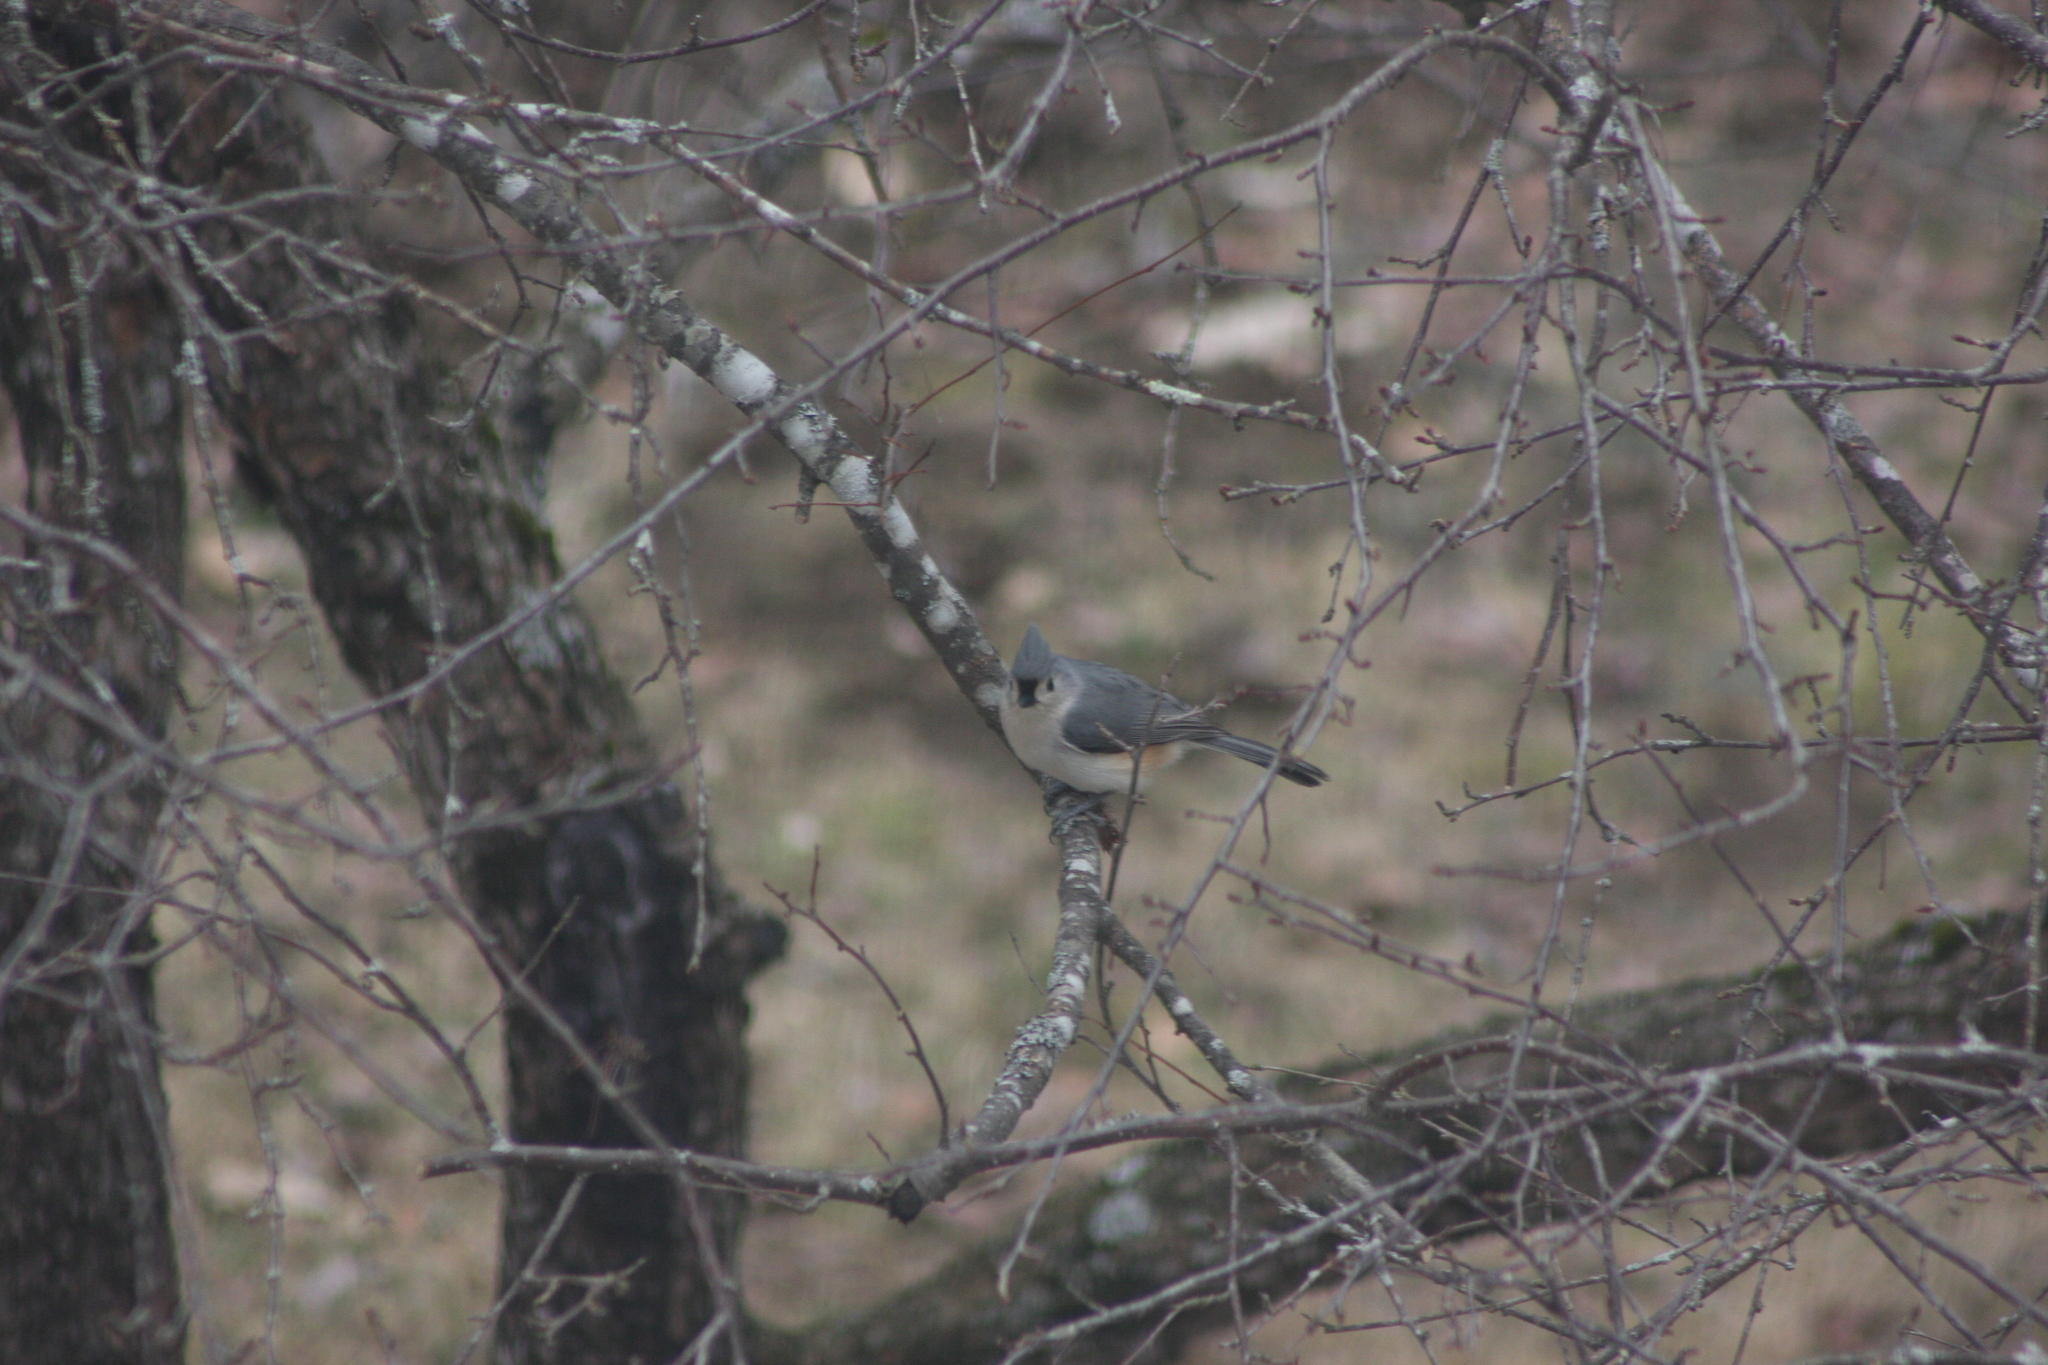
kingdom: Animalia
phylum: Chordata
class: Aves
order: Passeriformes
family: Paridae
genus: Baeolophus
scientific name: Baeolophus bicolor
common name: Tufted titmouse
